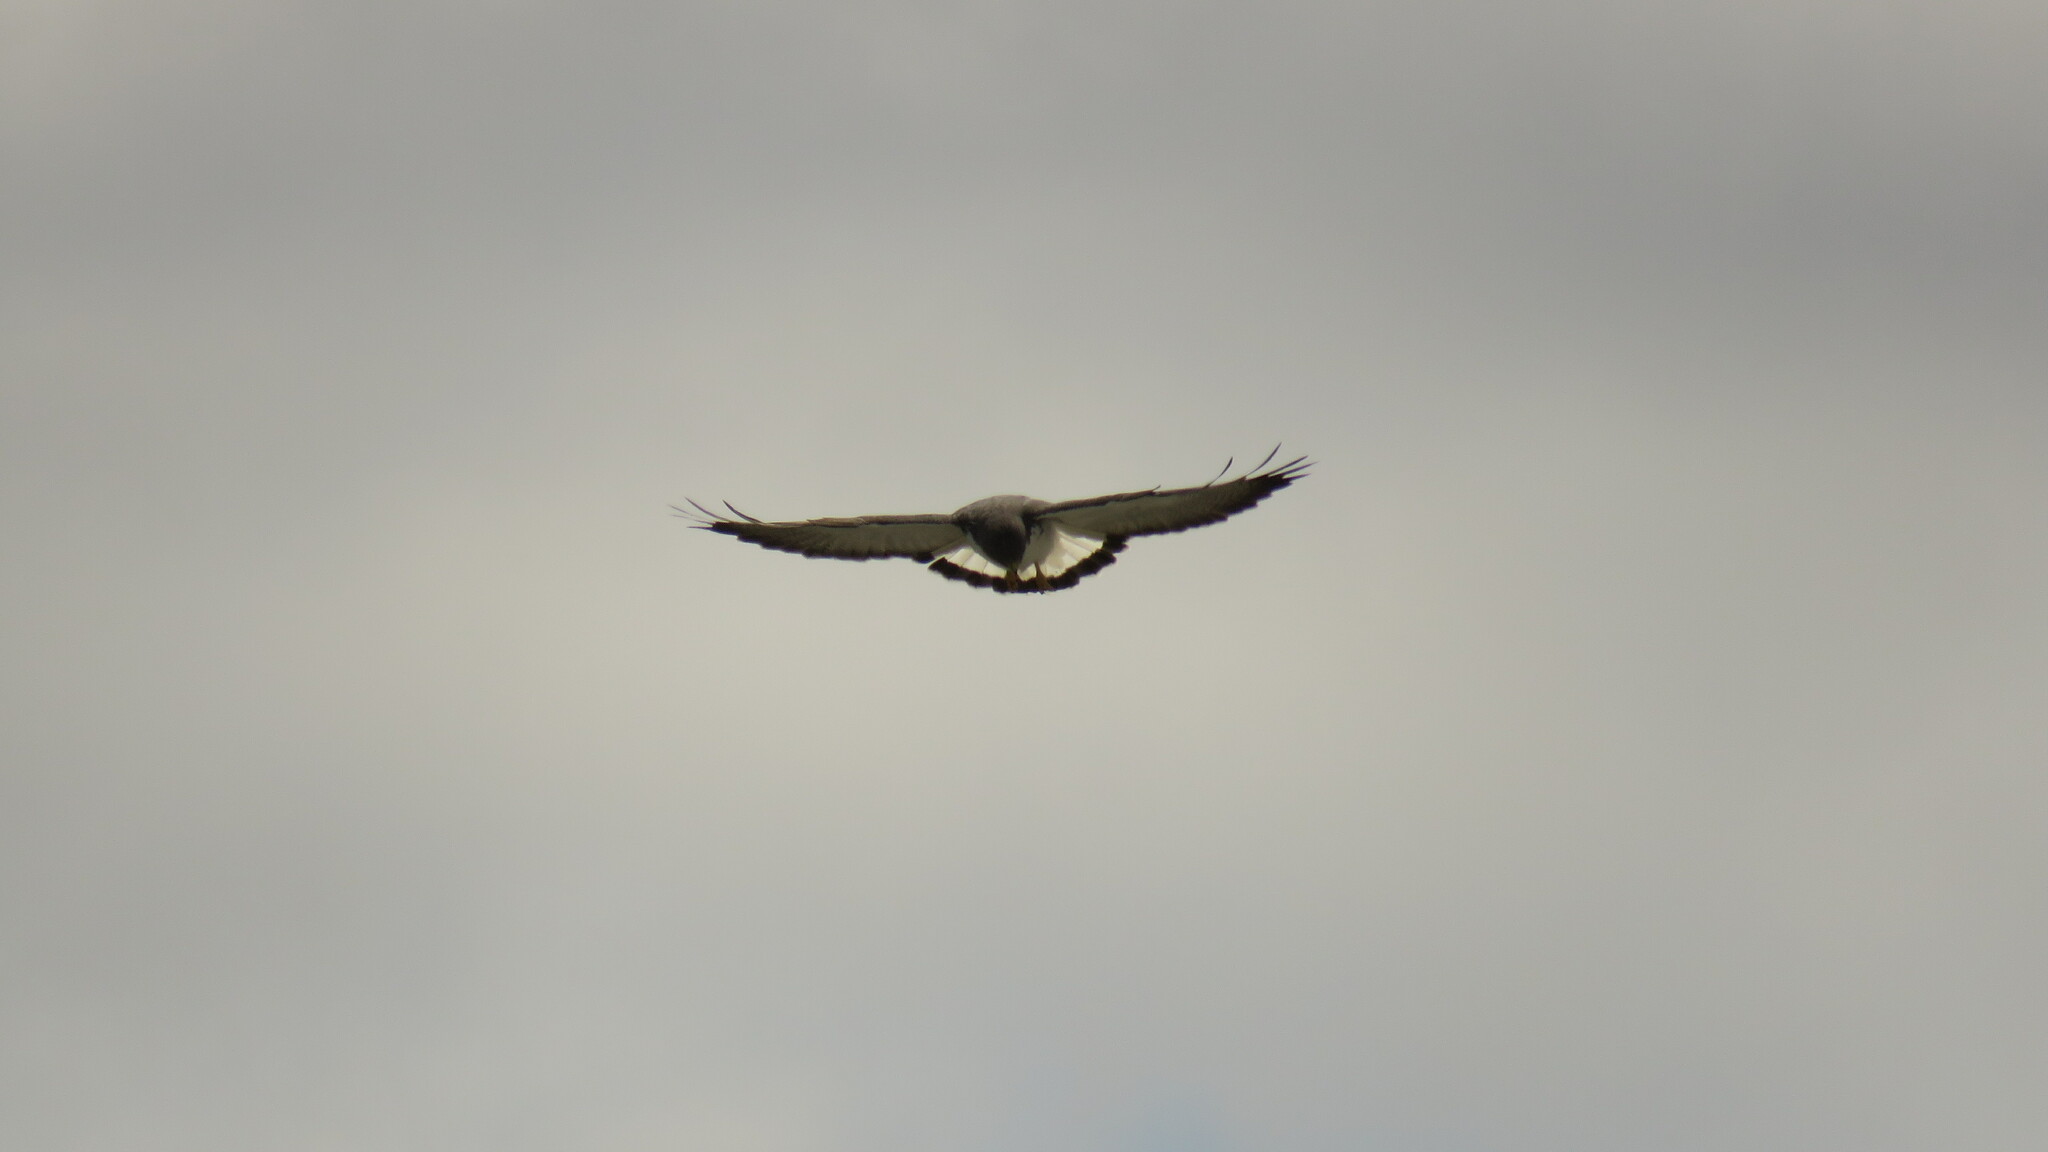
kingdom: Animalia
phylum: Chordata
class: Aves
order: Accipitriformes
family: Accipitridae
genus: Buteo
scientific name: Buteo polyosoma
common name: Variable hawk
